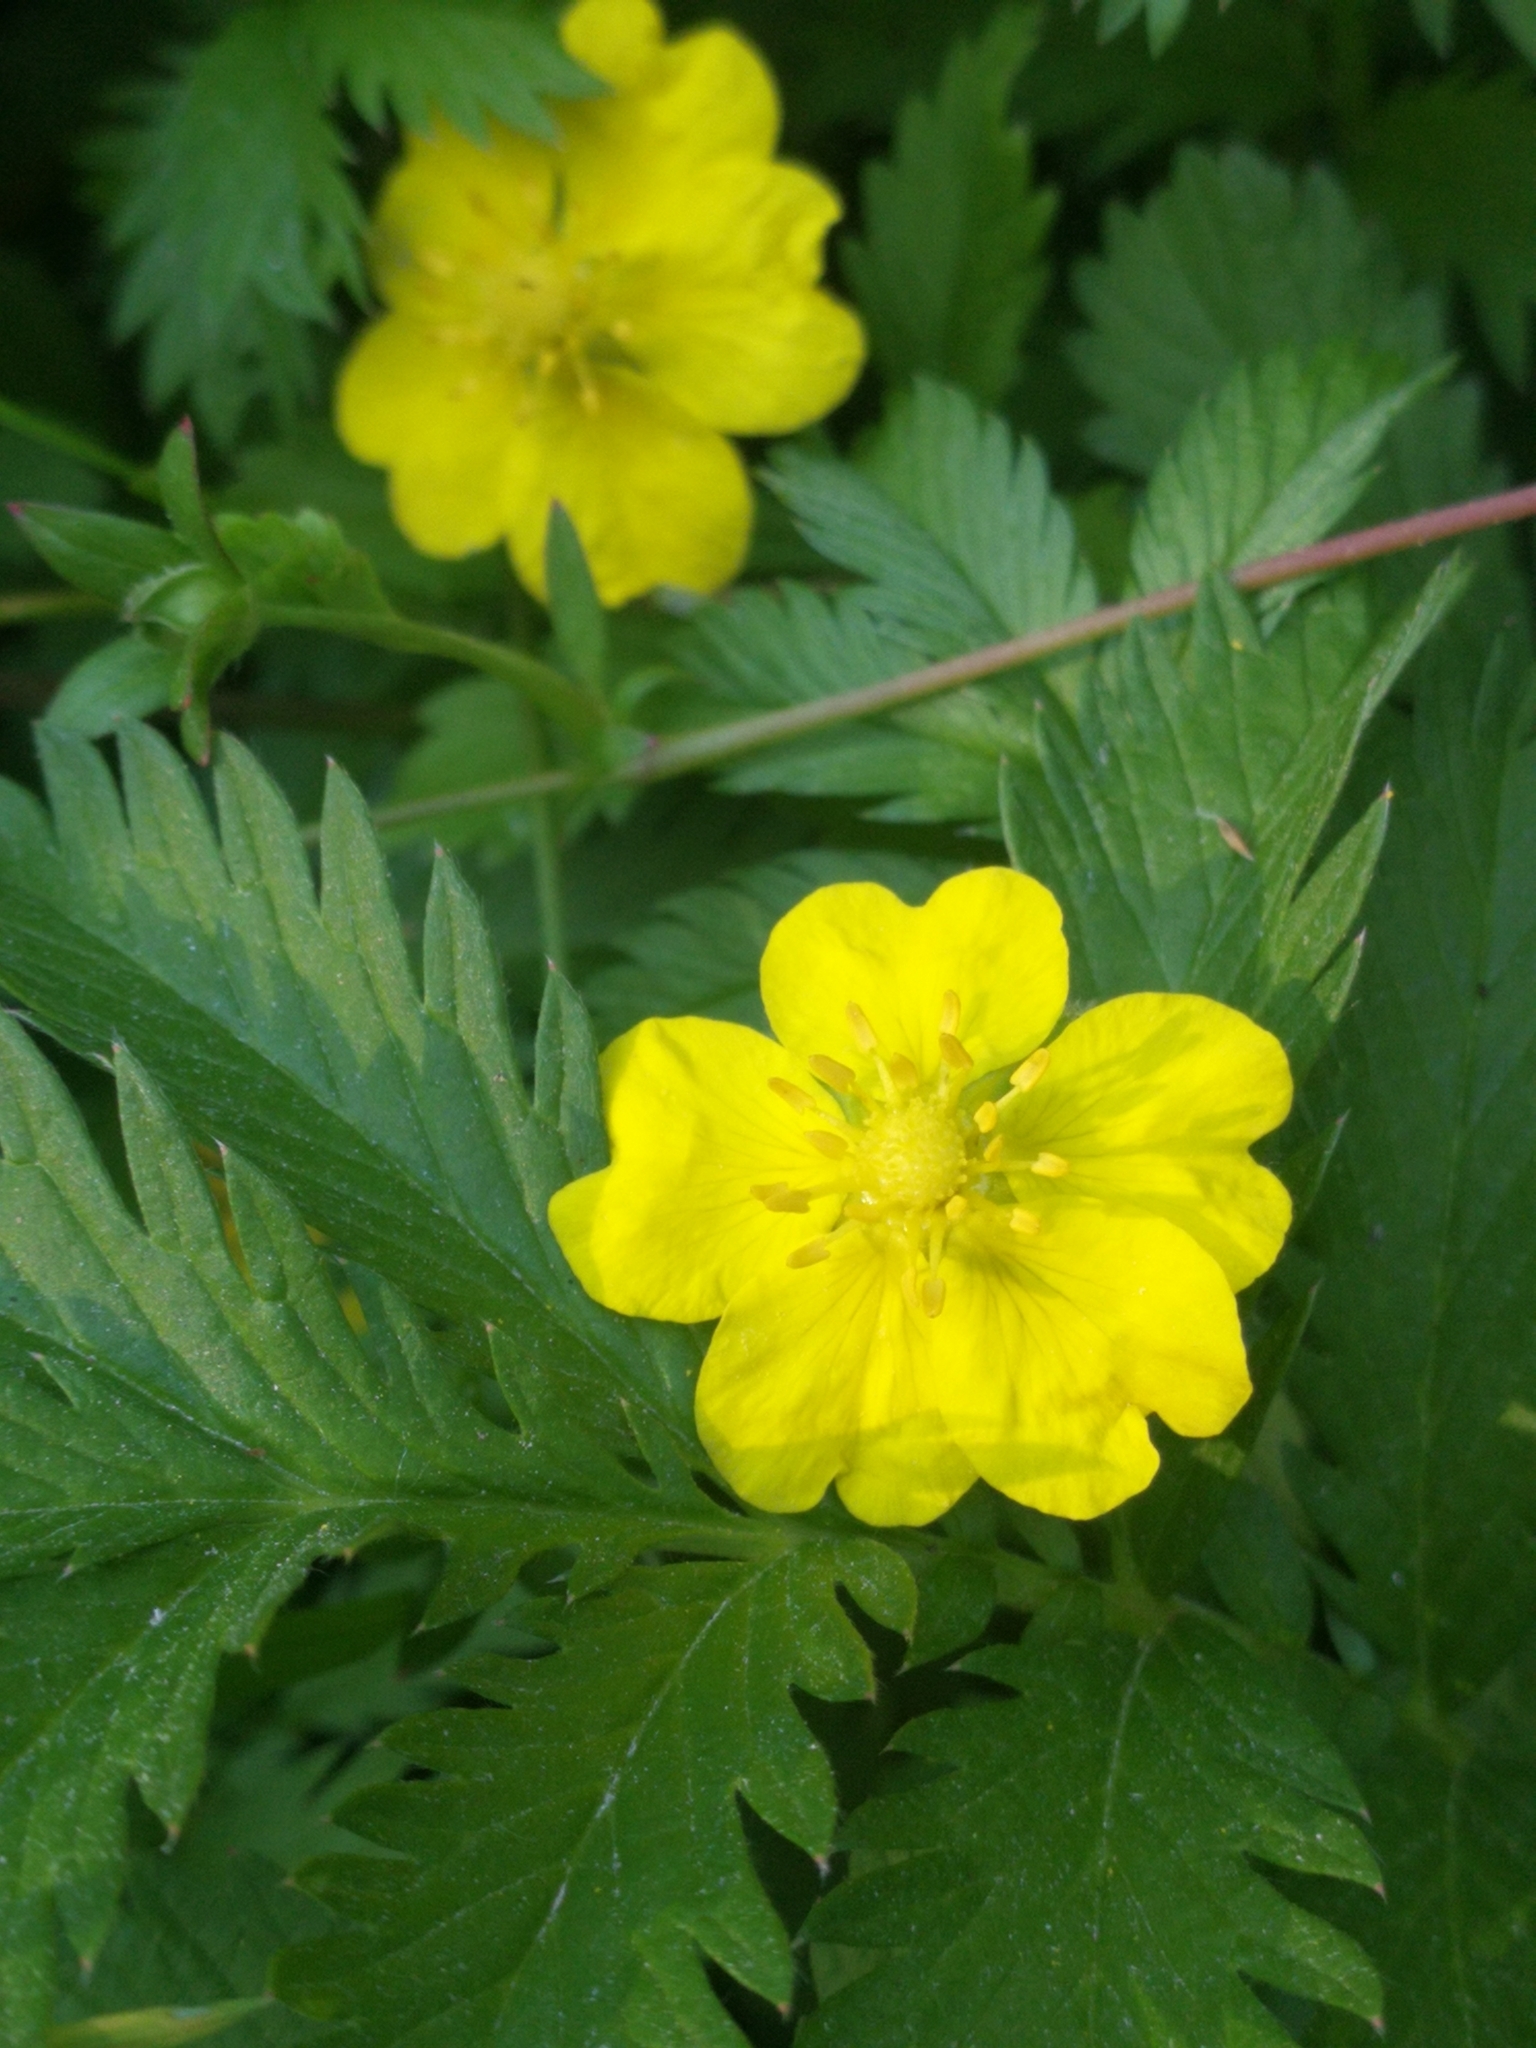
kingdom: Plantae
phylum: Tracheophyta
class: Magnoliopsida
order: Rosales
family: Rosaceae
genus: Argentina
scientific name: Argentina anserina
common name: Common silverweed
